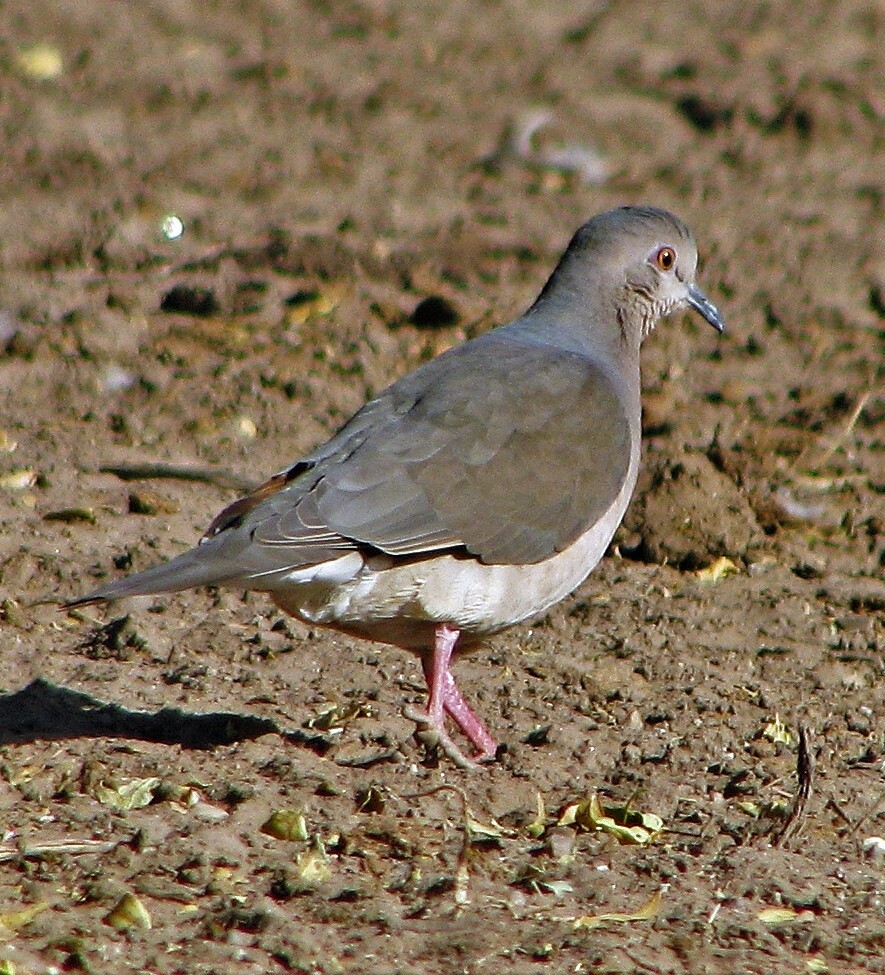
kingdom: Animalia
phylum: Chordata
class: Aves
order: Columbiformes
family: Columbidae
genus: Leptotila
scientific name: Leptotila verreauxi
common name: White-tipped dove
